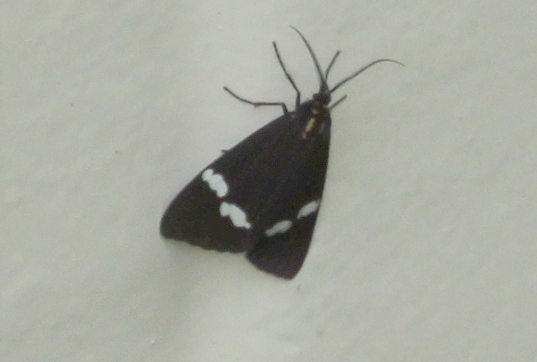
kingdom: Animalia
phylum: Arthropoda
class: Insecta
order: Lepidoptera
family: Erebidae
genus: Nyctemera
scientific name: Nyctemera annulatum
